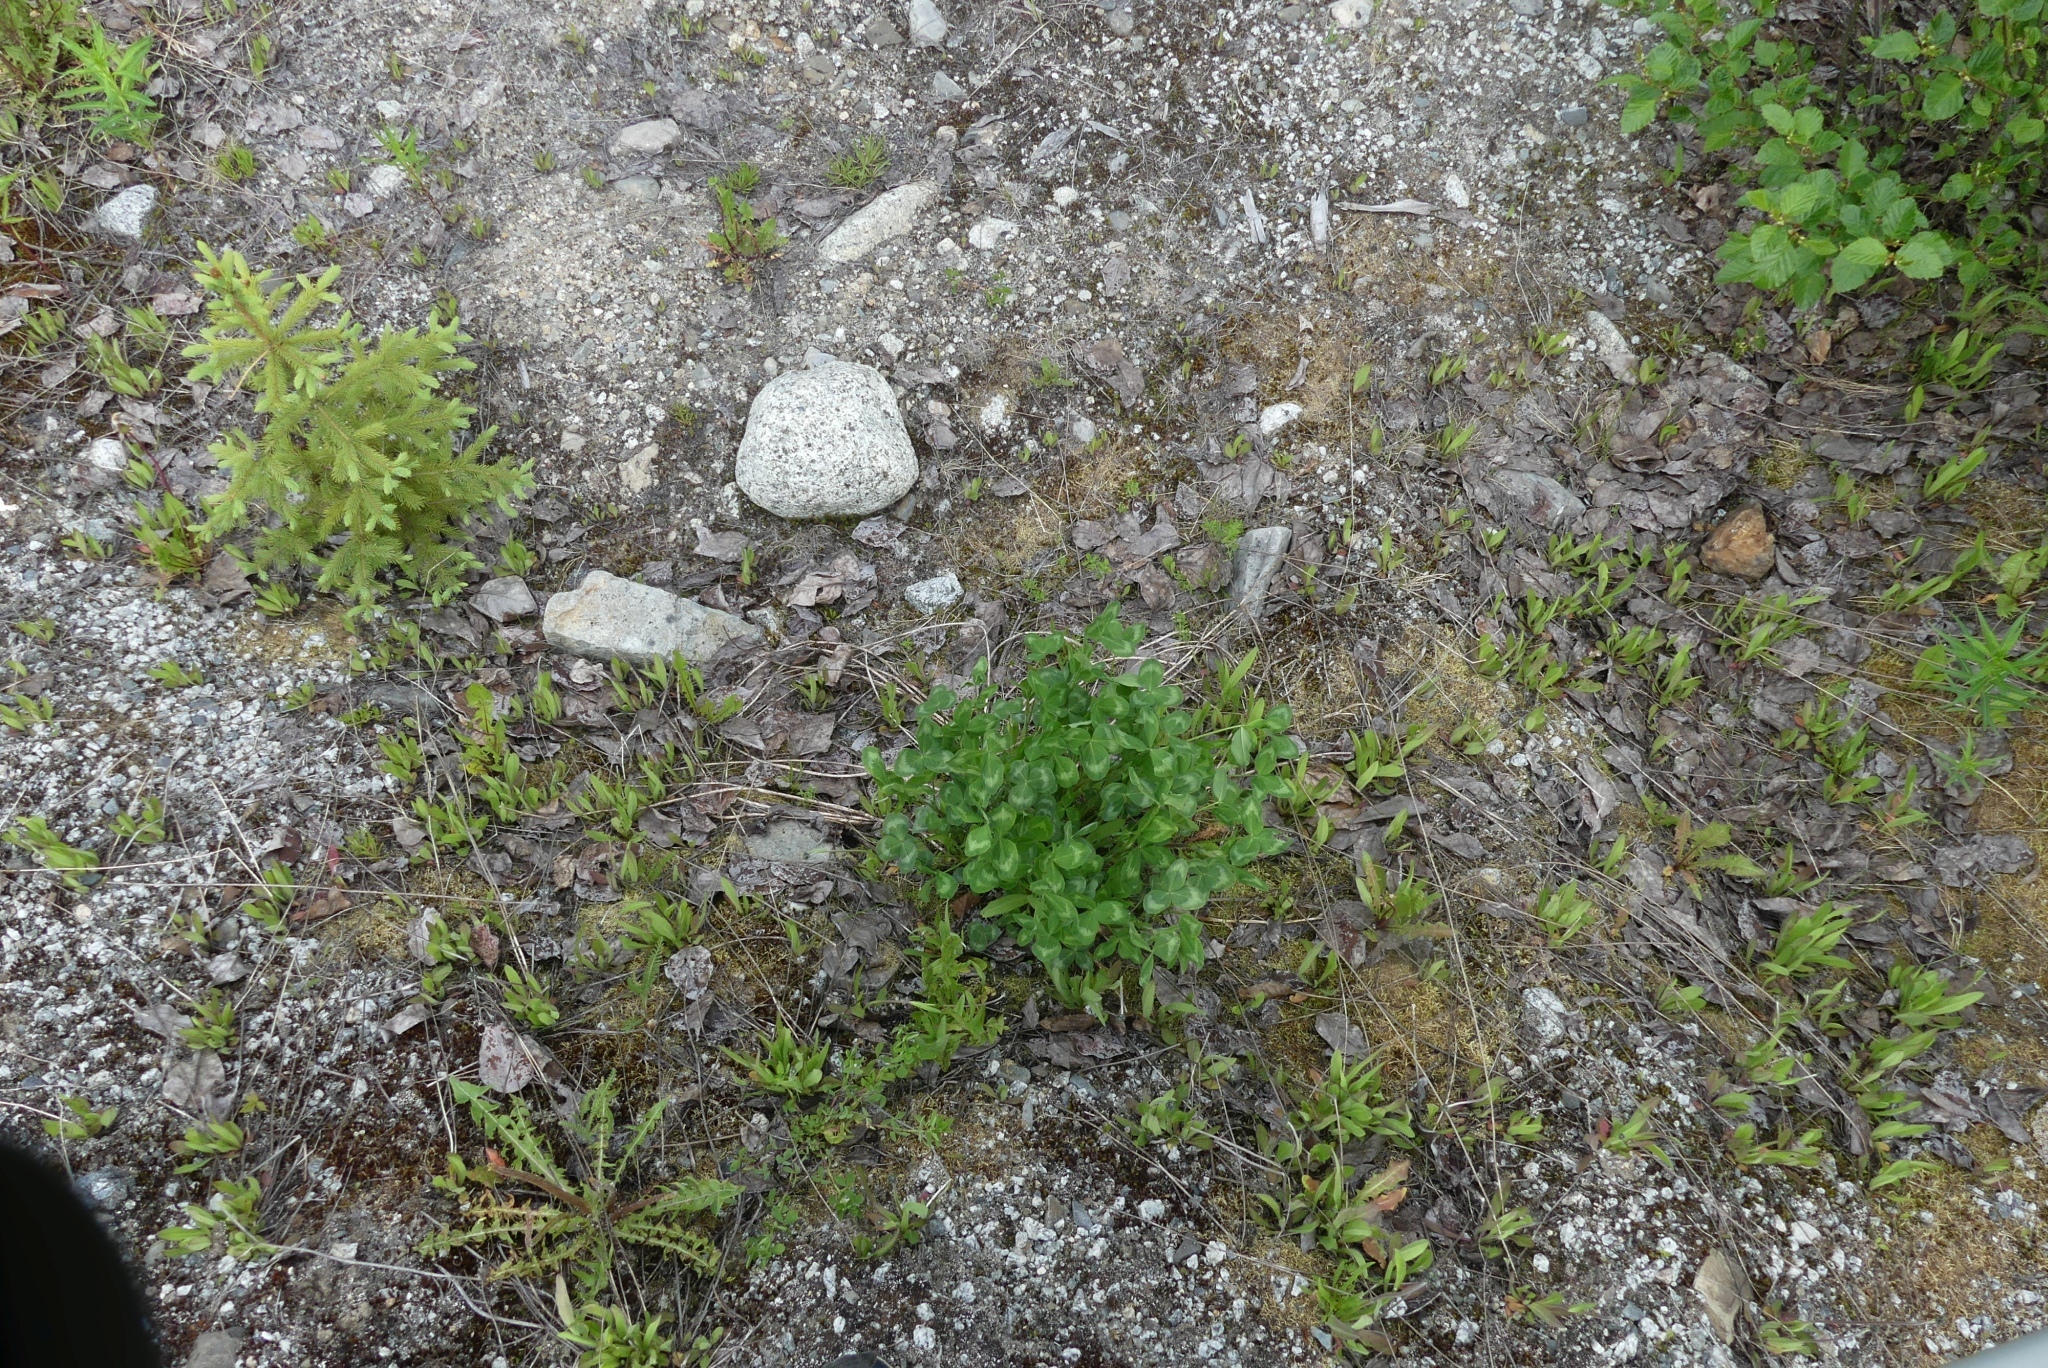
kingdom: Plantae
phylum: Tracheophyta
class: Magnoliopsida
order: Fabales
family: Fabaceae
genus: Trifolium
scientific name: Trifolium pratense
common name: Red clover
